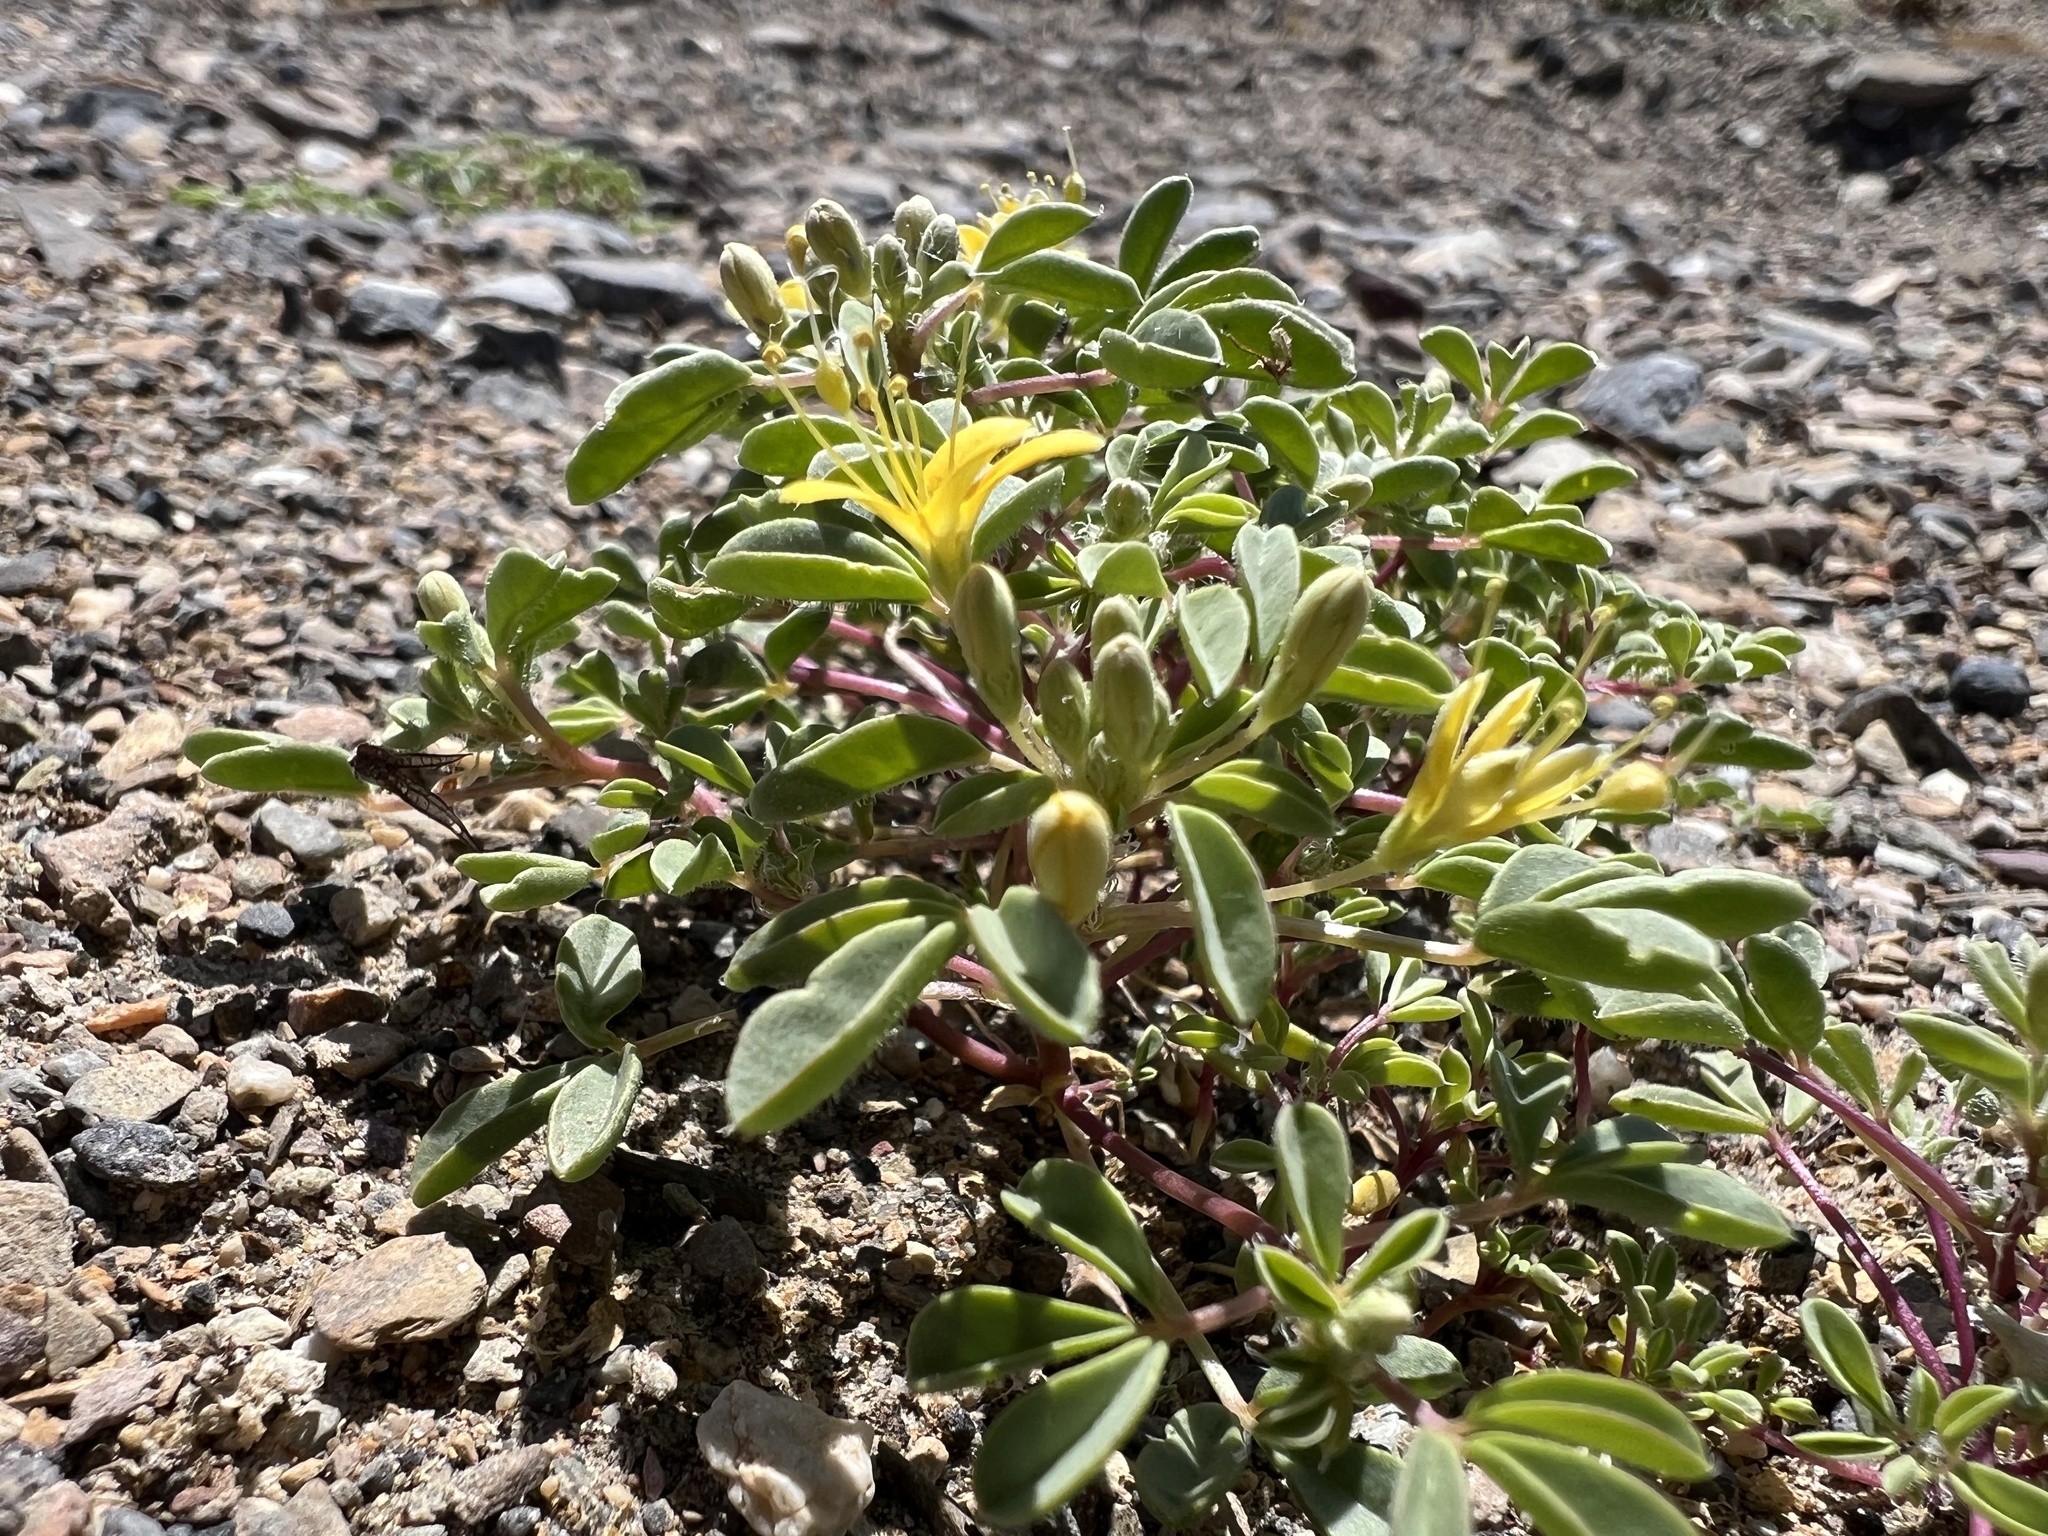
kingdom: Plantae
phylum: Tracheophyta
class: Magnoliopsida
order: Brassicales
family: Cleomaceae
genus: Cleomella
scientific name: Cleomella obtusifolia
